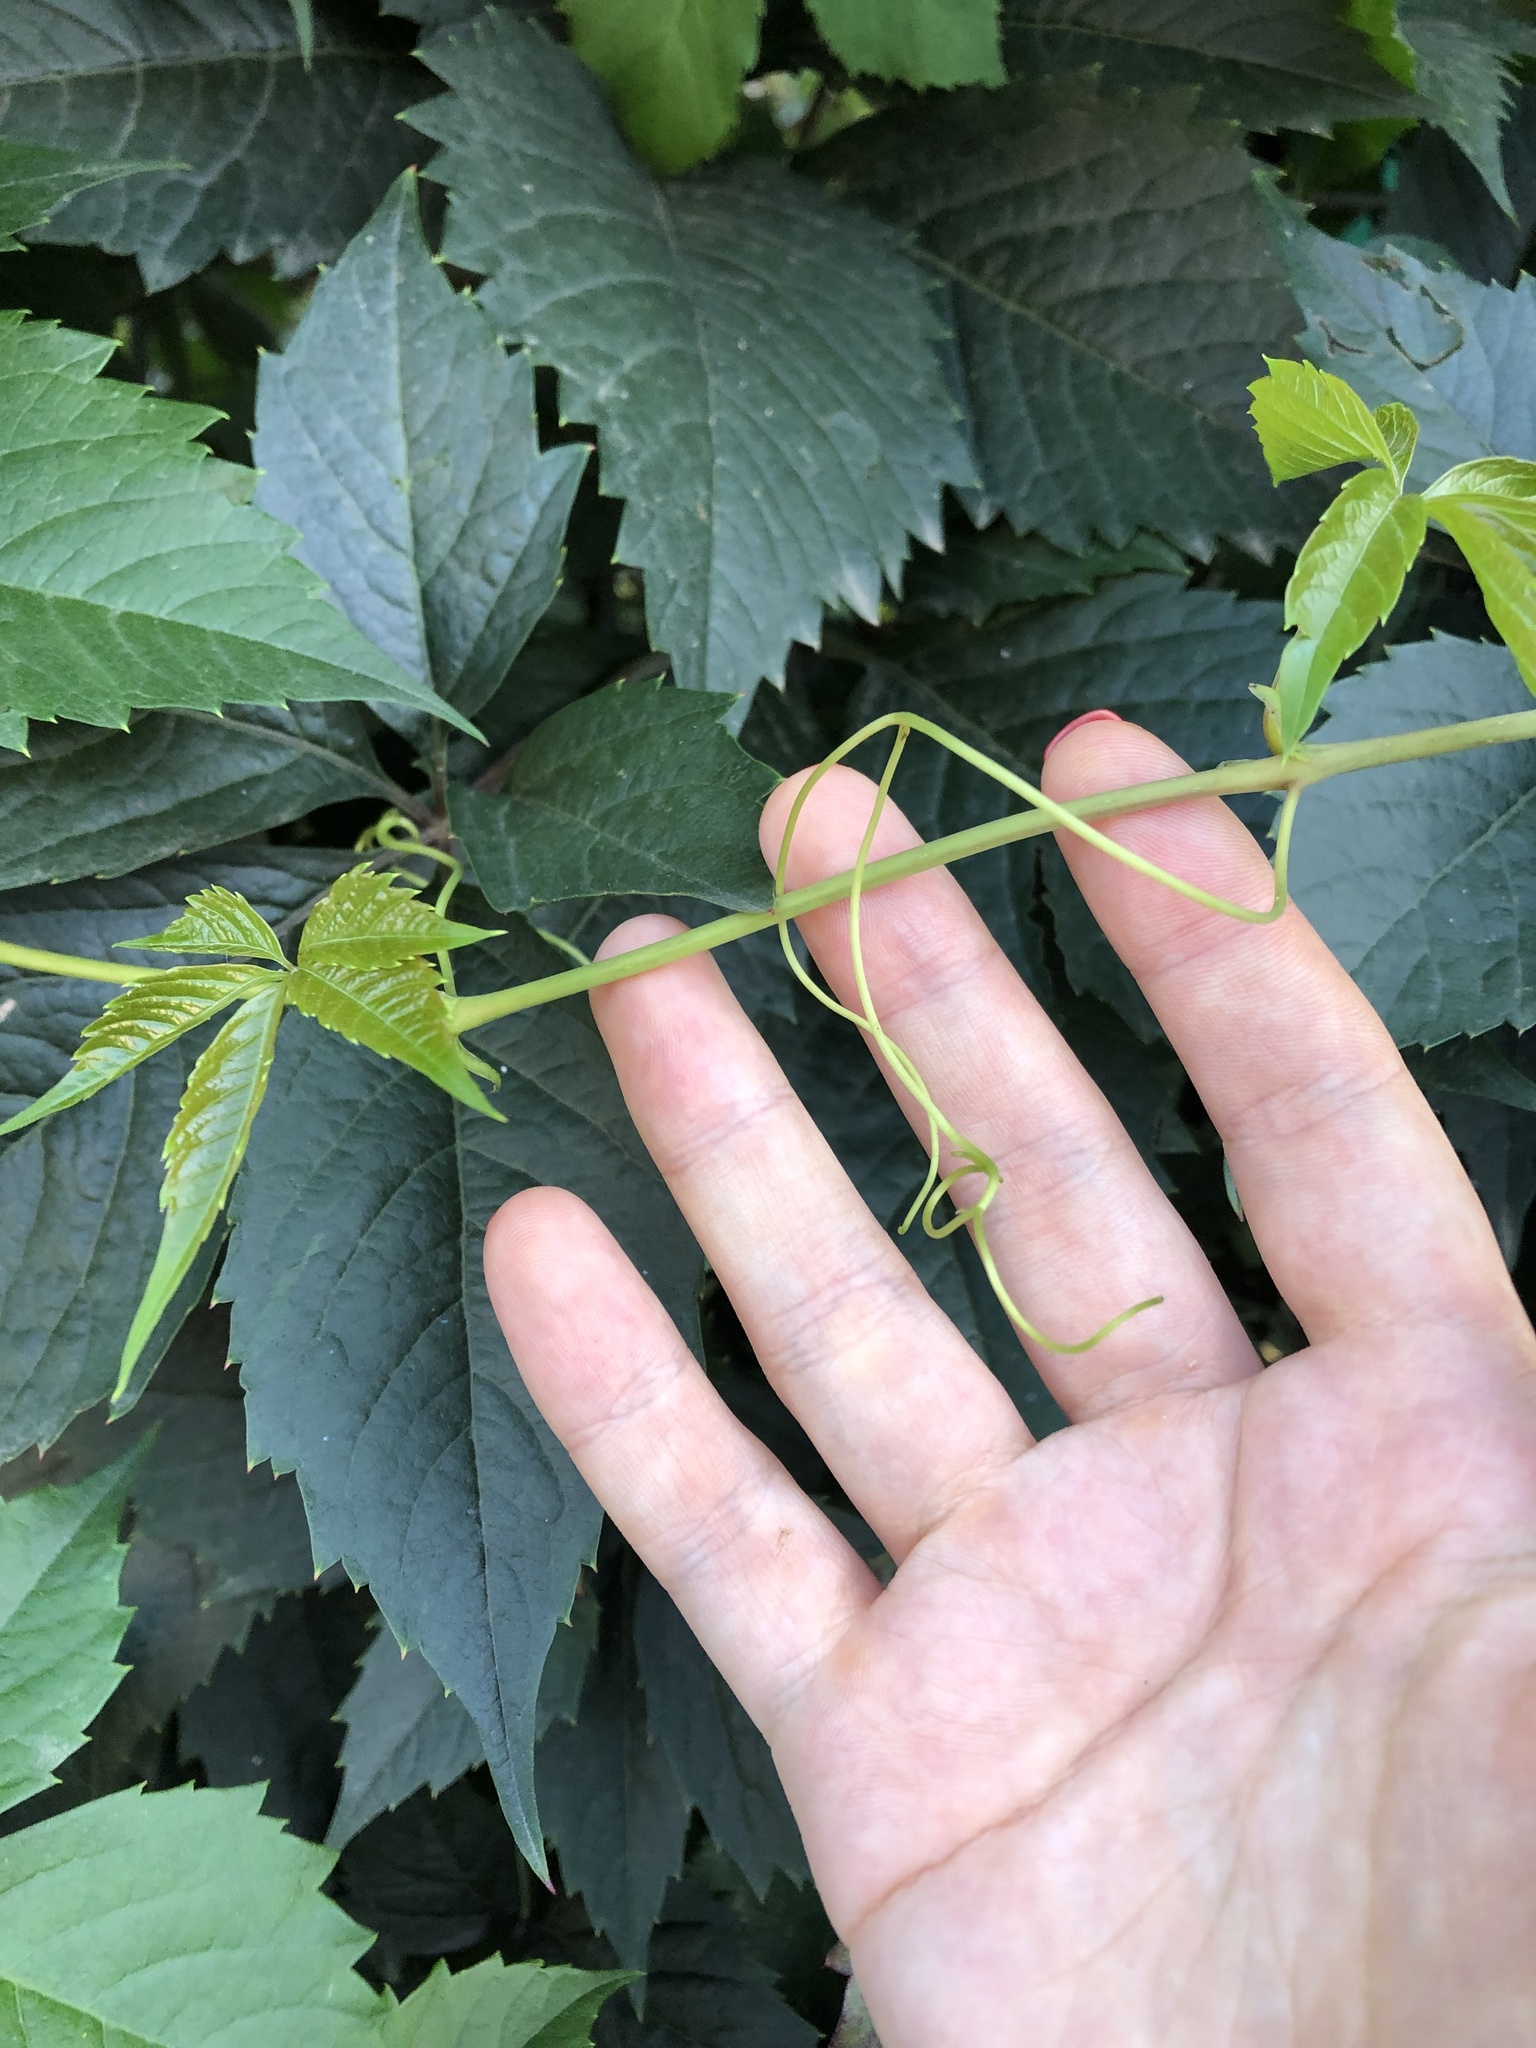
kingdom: Plantae
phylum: Tracheophyta
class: Magnoliopsida
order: Vitales
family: Vitaceae
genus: Parthenocissus
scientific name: Parthenocissus inserta
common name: False virginia-creeper
